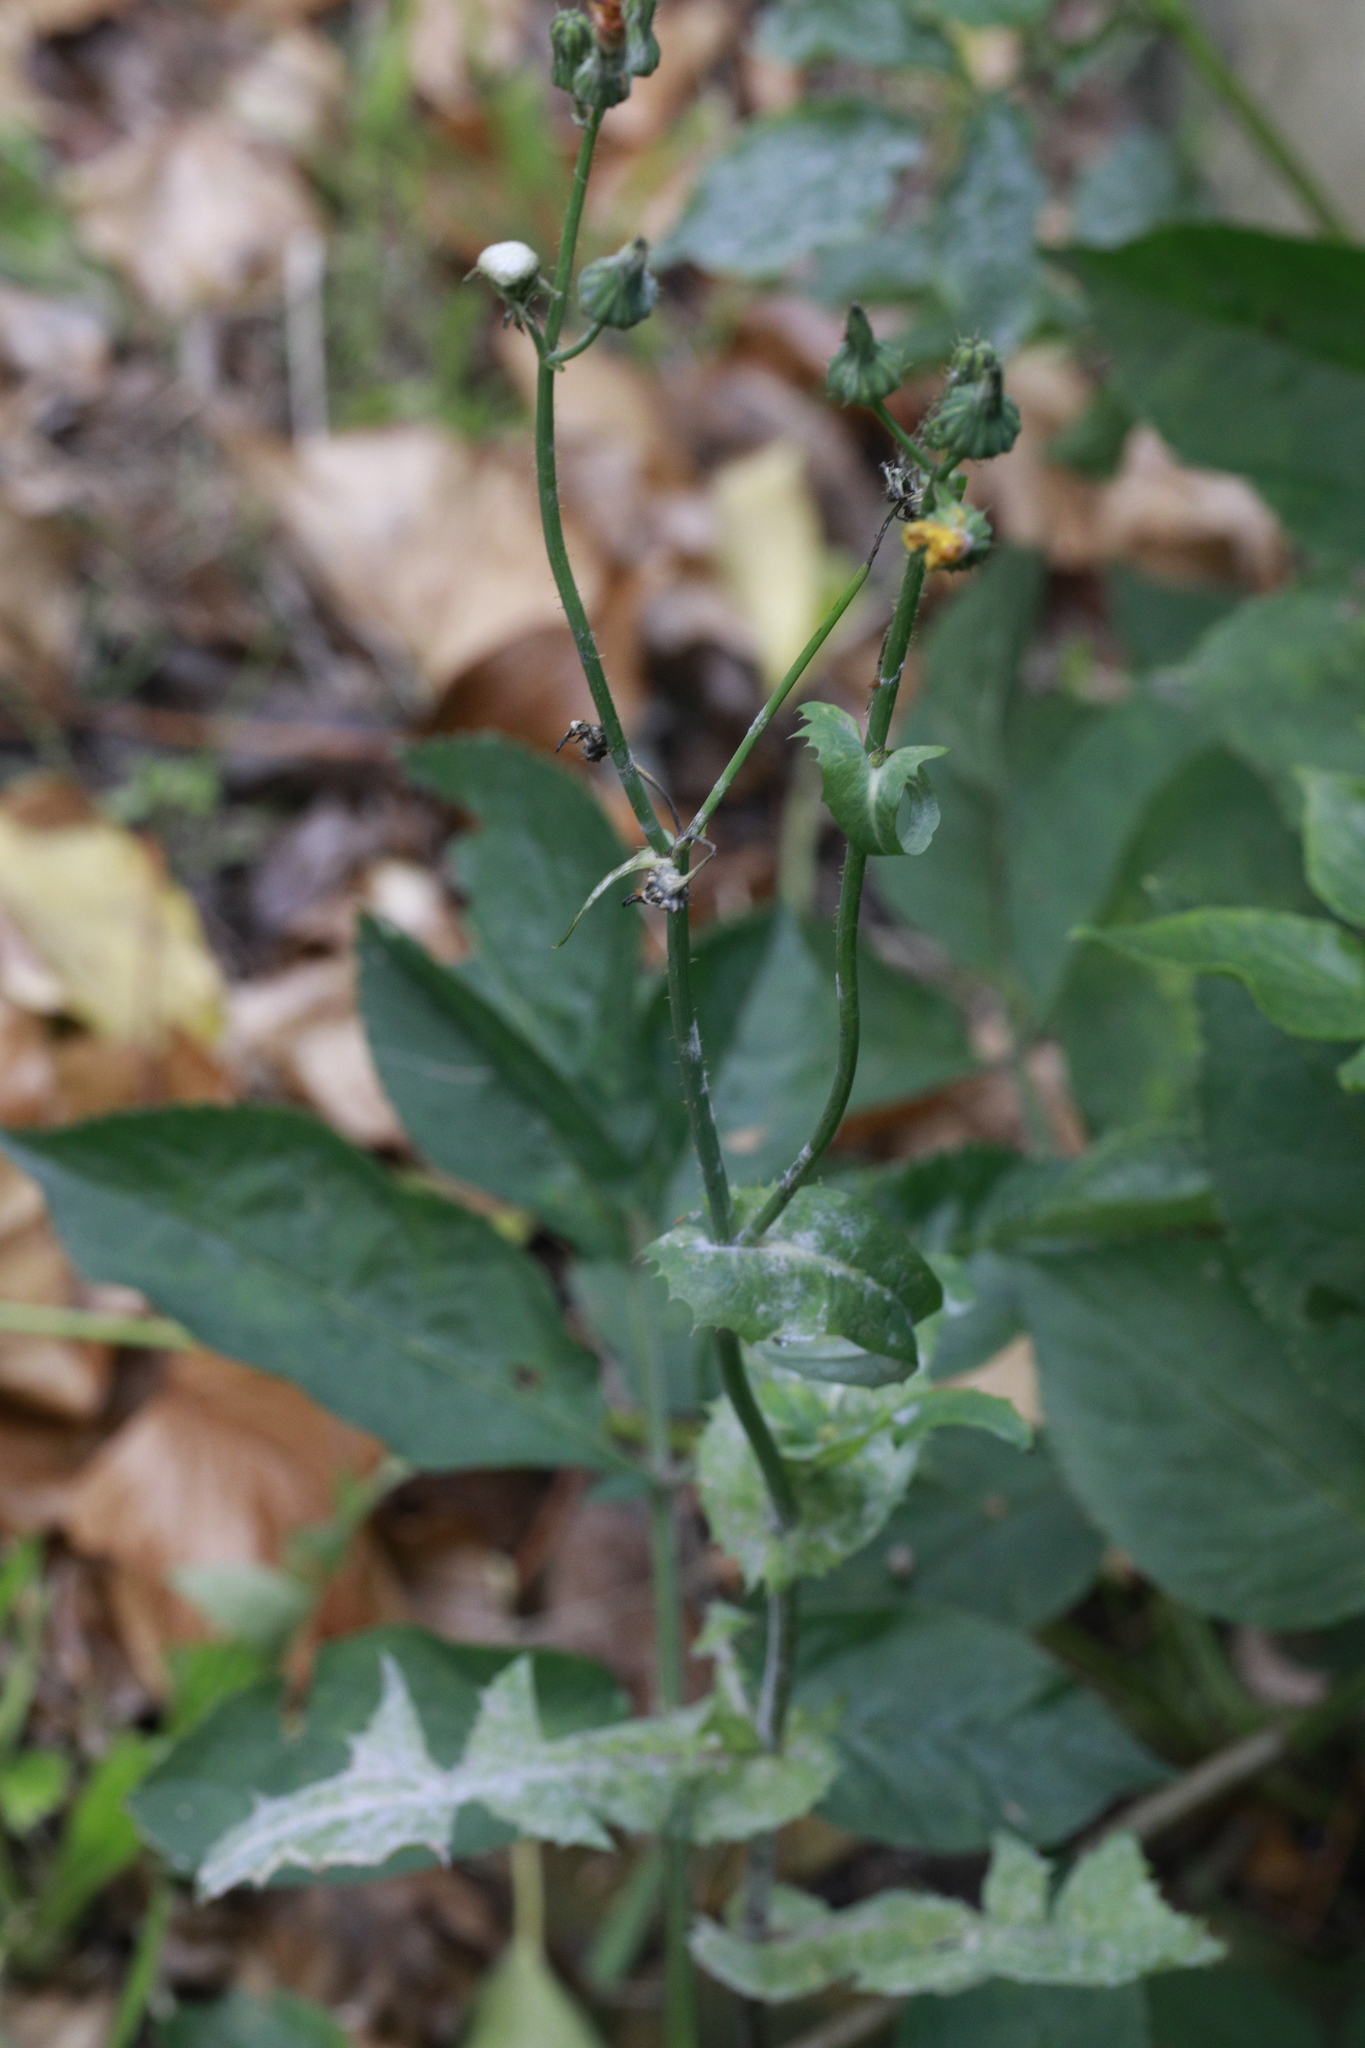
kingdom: Plantae
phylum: Tracheophyta
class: Magnoliopsida
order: Asterales
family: Asteraceae
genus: Sonchus
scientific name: Sonchus oleraceus
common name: Common sowthistle
